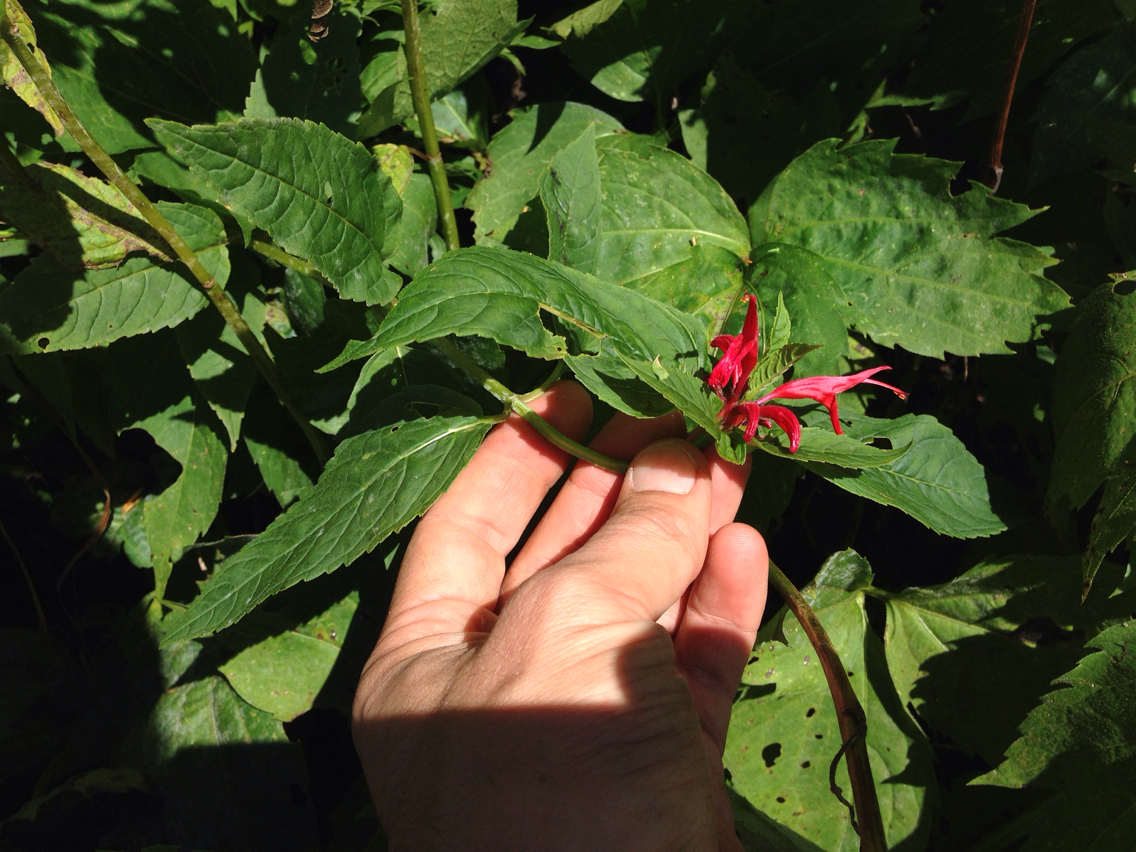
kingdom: Plantae
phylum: Tracheophyta
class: Magnoliopsida
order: Lamiales
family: Lamiaceae
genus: Monarda
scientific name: Monarda didyma
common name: Beebalm
